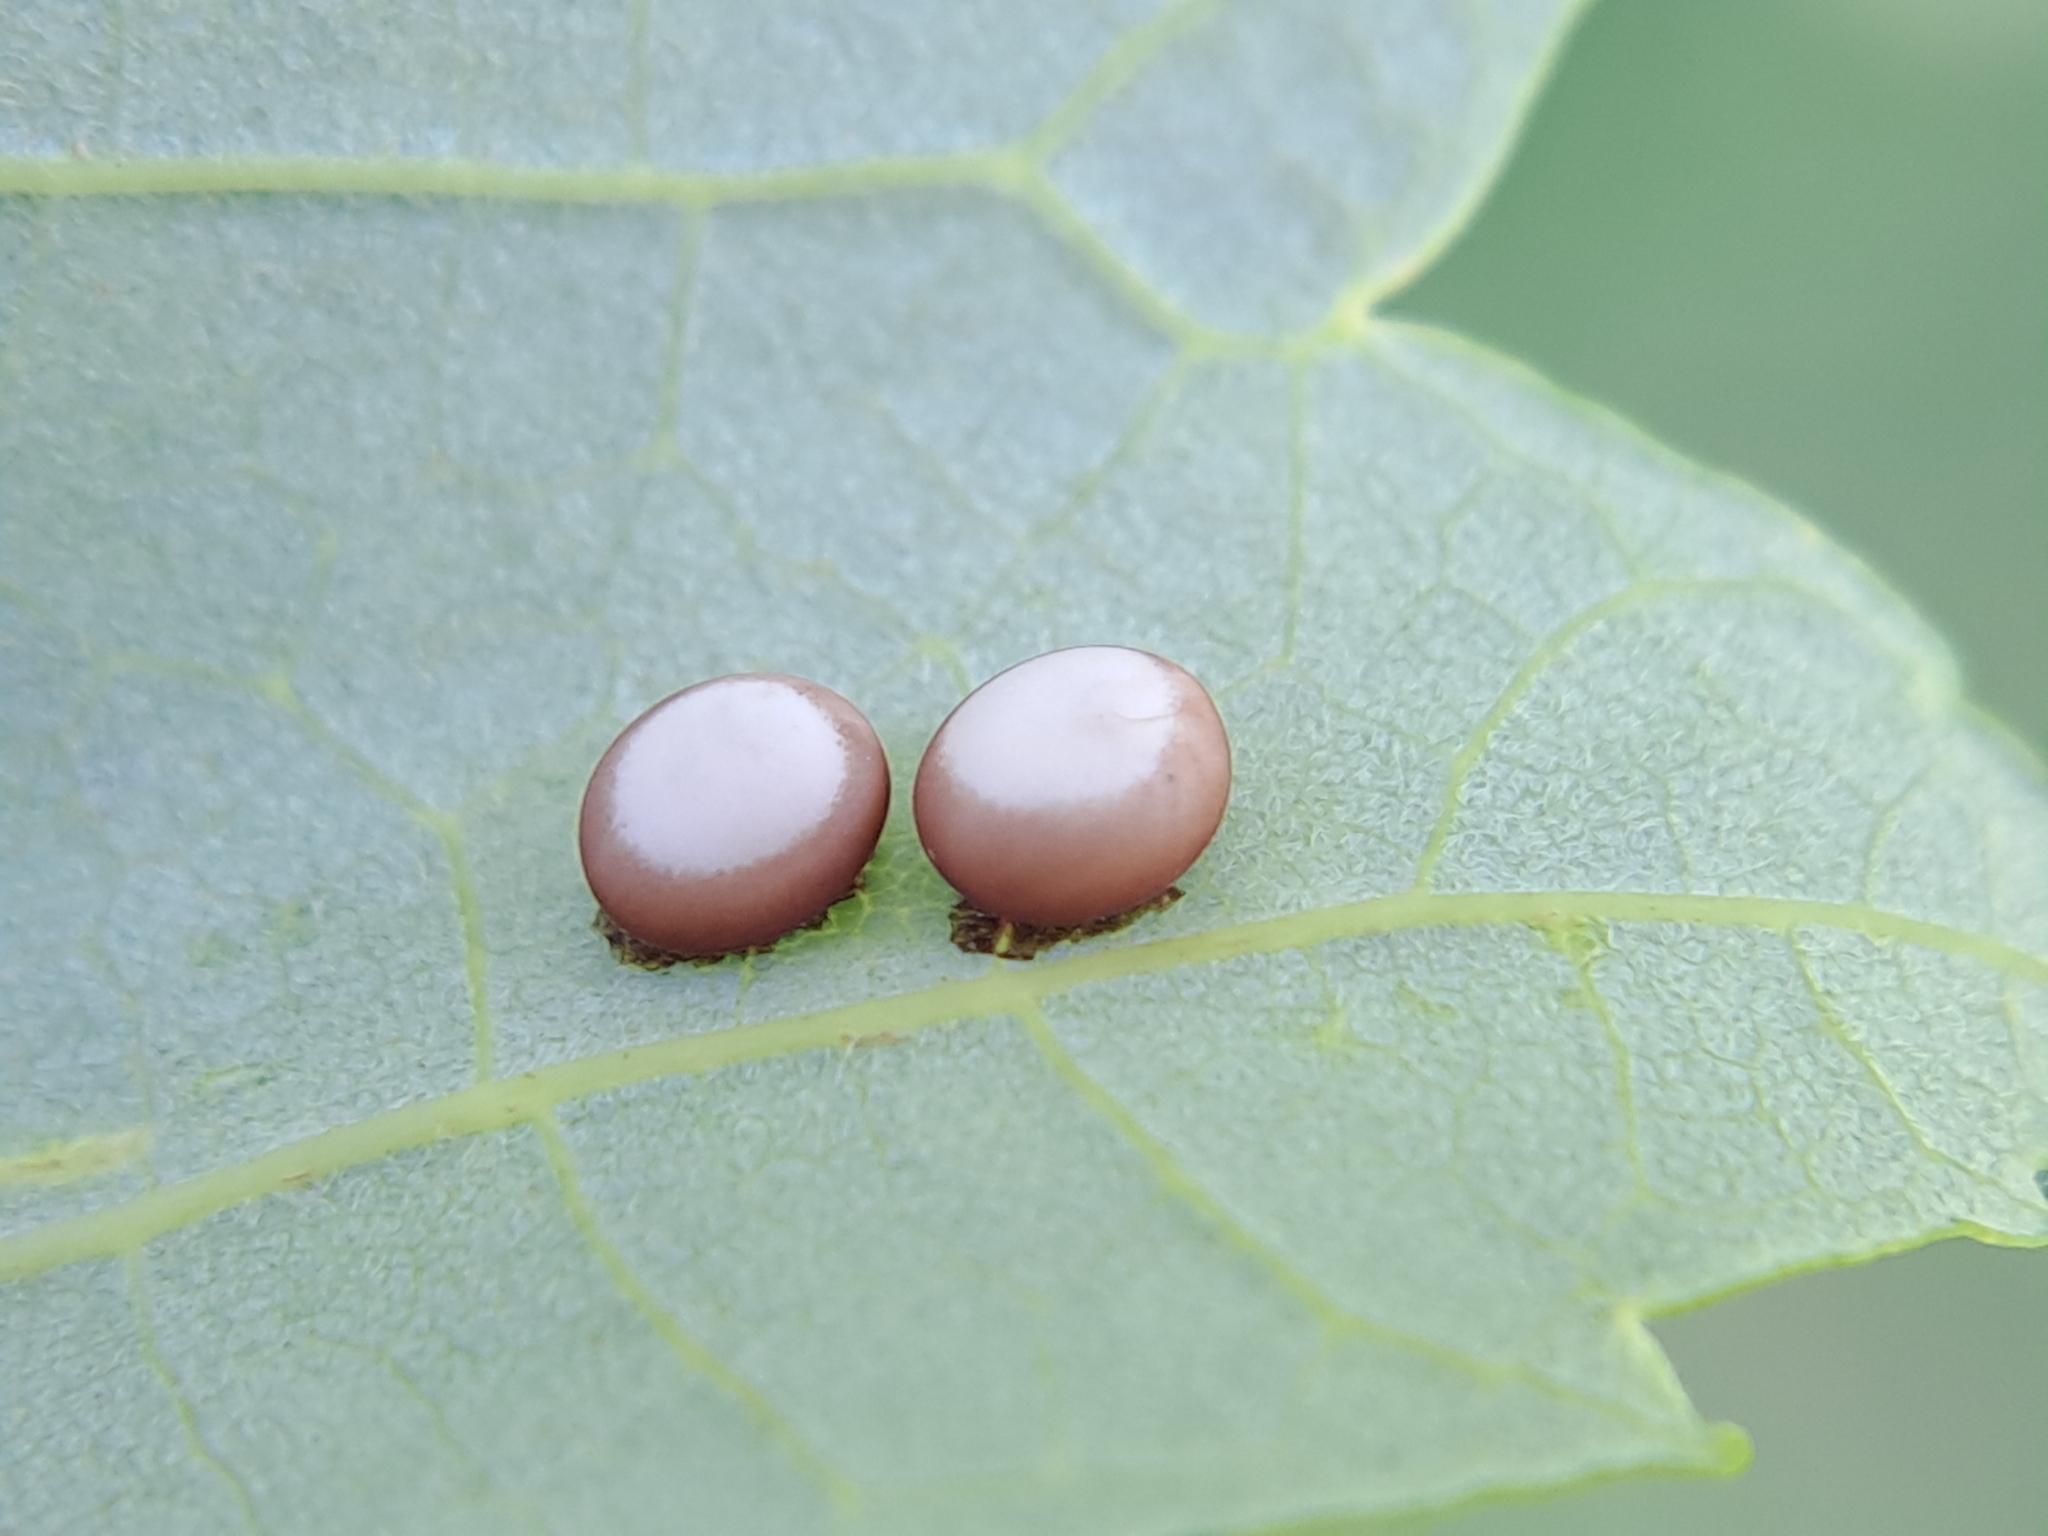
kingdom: Animalia
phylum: Arthropoda
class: Insecta
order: Lepidoptera
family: Saturniidae
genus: Antheraea
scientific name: Antheraea polyphemus
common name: Polyphemus moth
